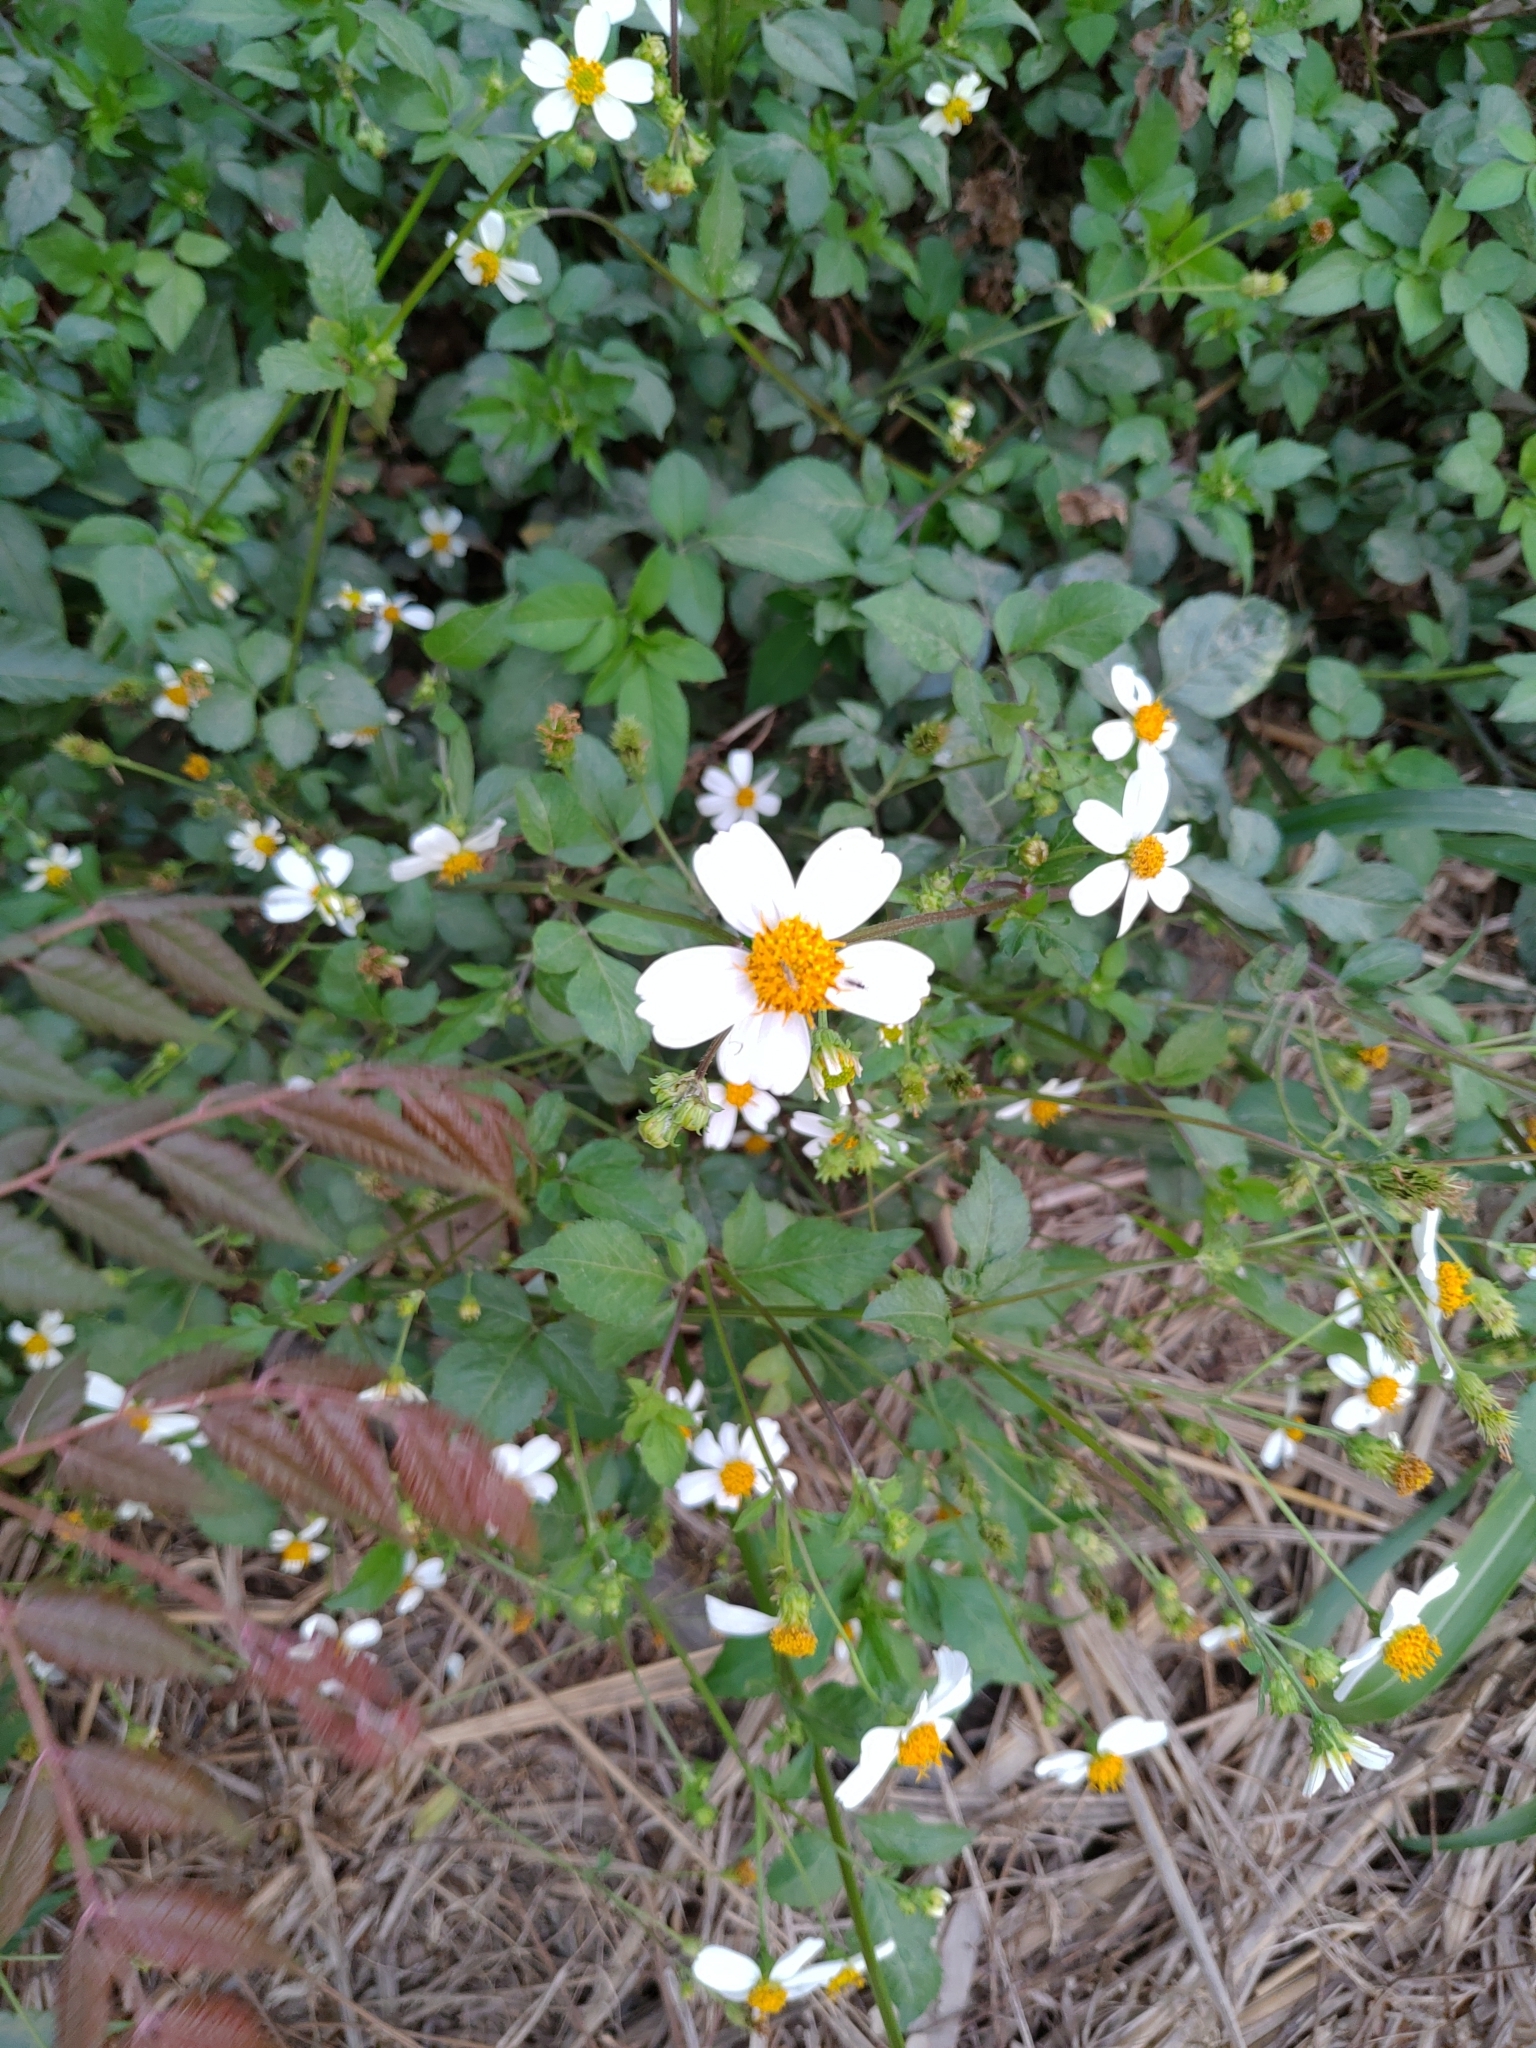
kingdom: Plantae
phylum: Tracheophyta
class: Magnoliopsida
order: Asterales
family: Asteraceae
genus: Bidens
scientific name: Bidens alba
